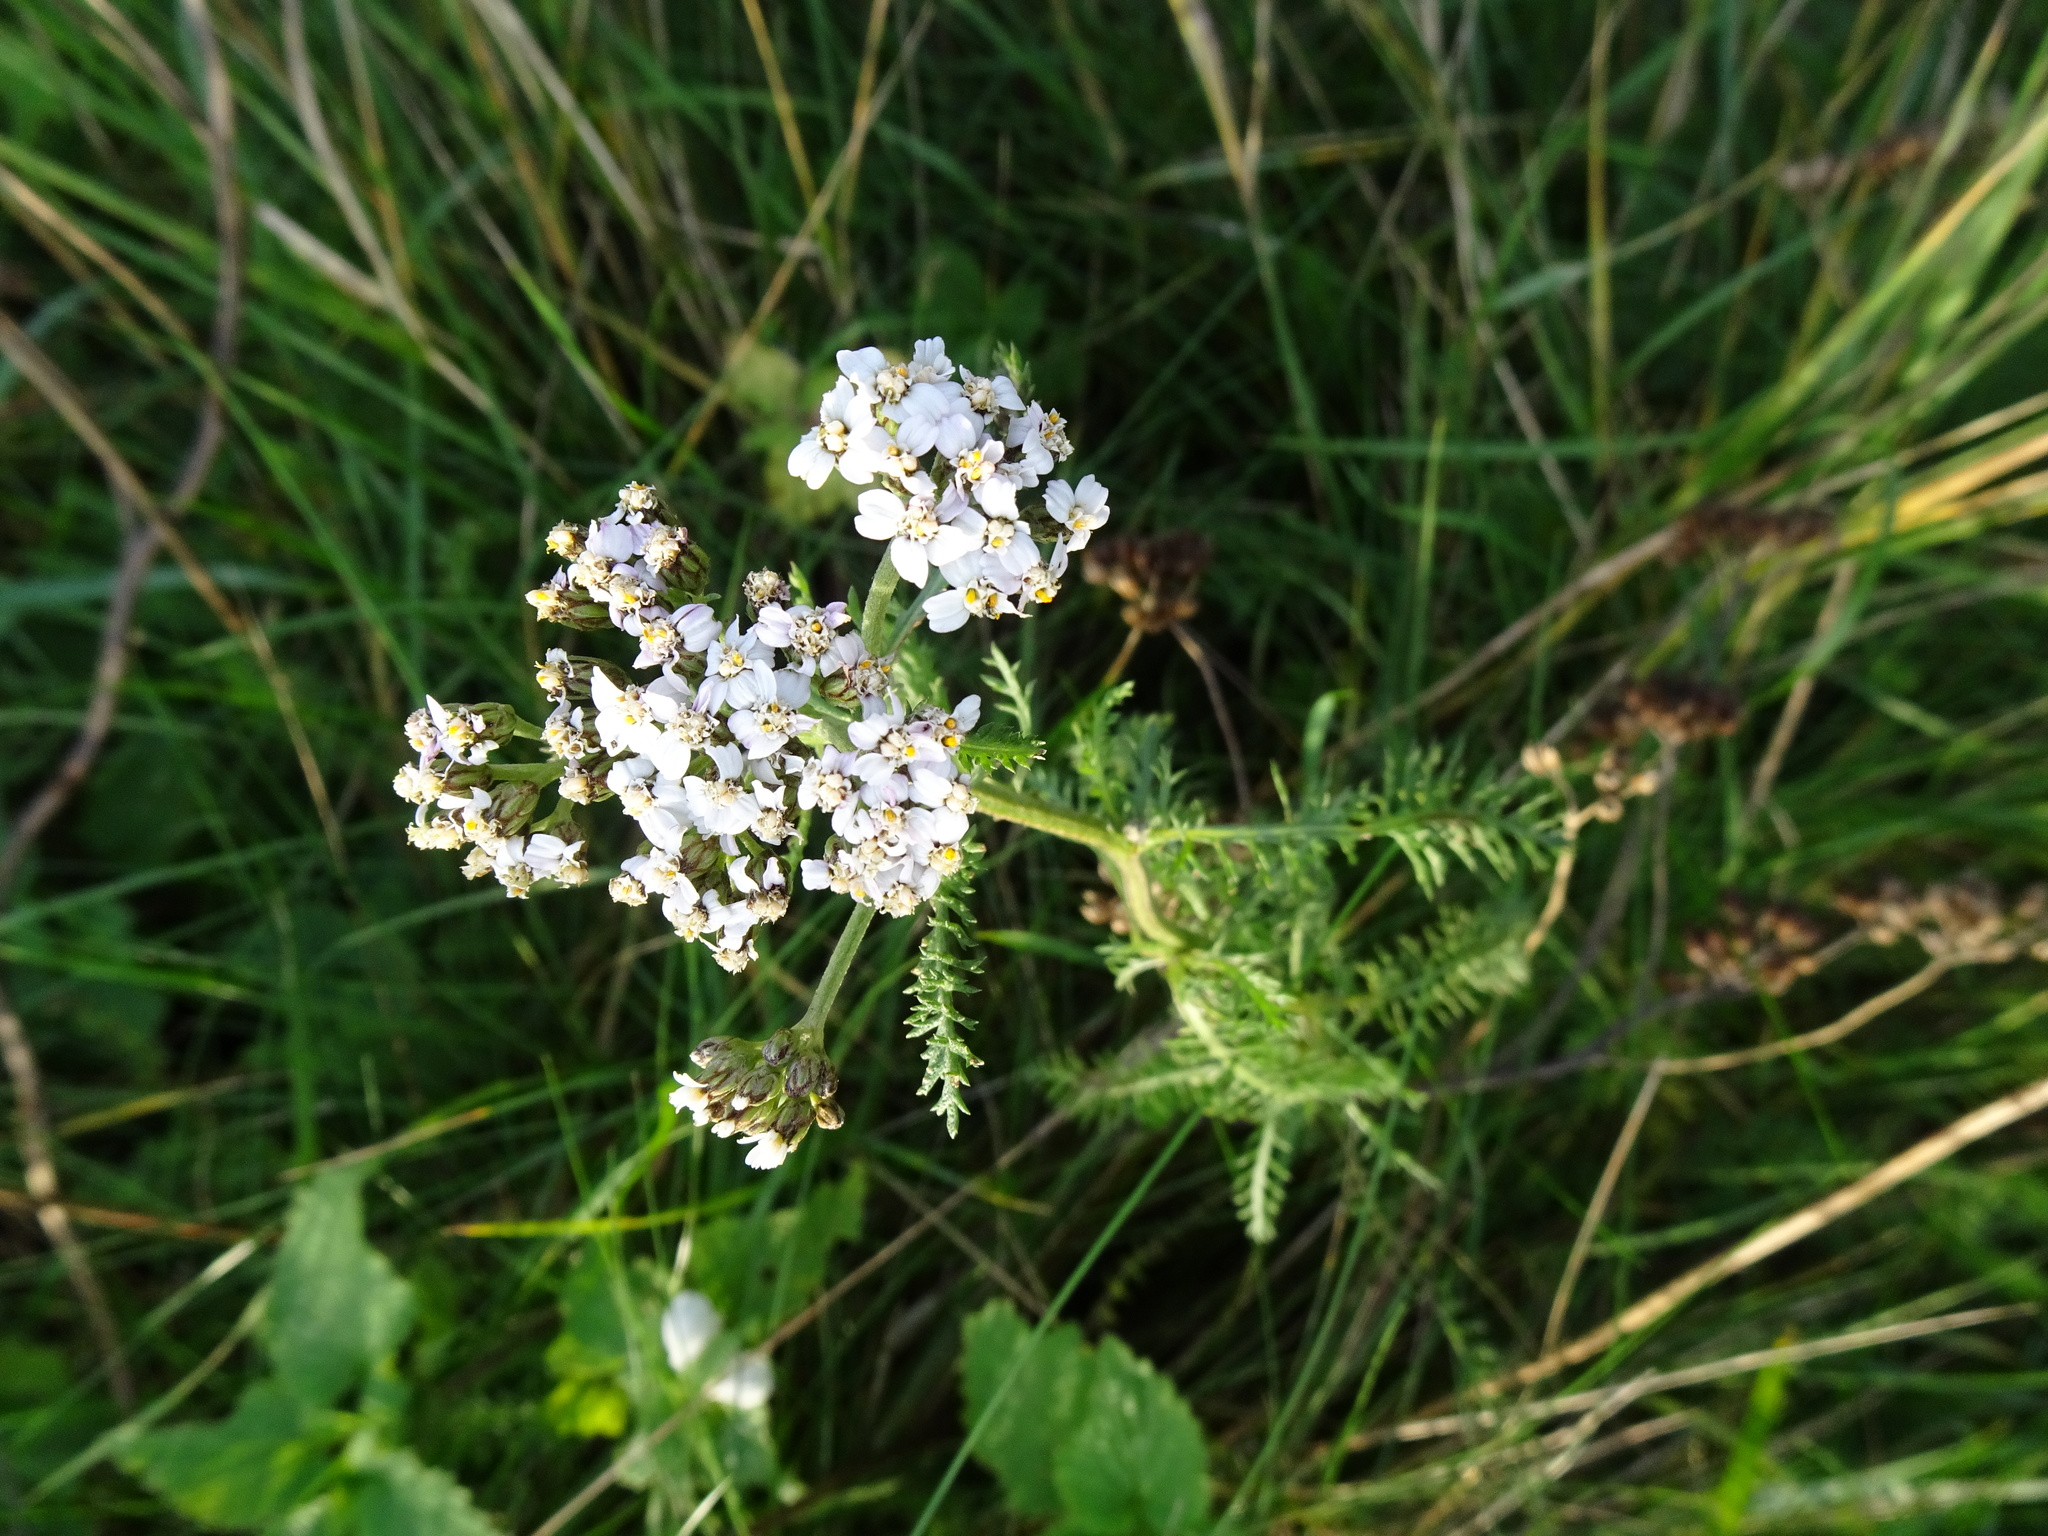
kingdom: Plantae
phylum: Tracheophyta
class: Magnoliopsida
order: Asterales
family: Asteraceae
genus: Achillea
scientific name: Achillea millefolium
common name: Yarrow
